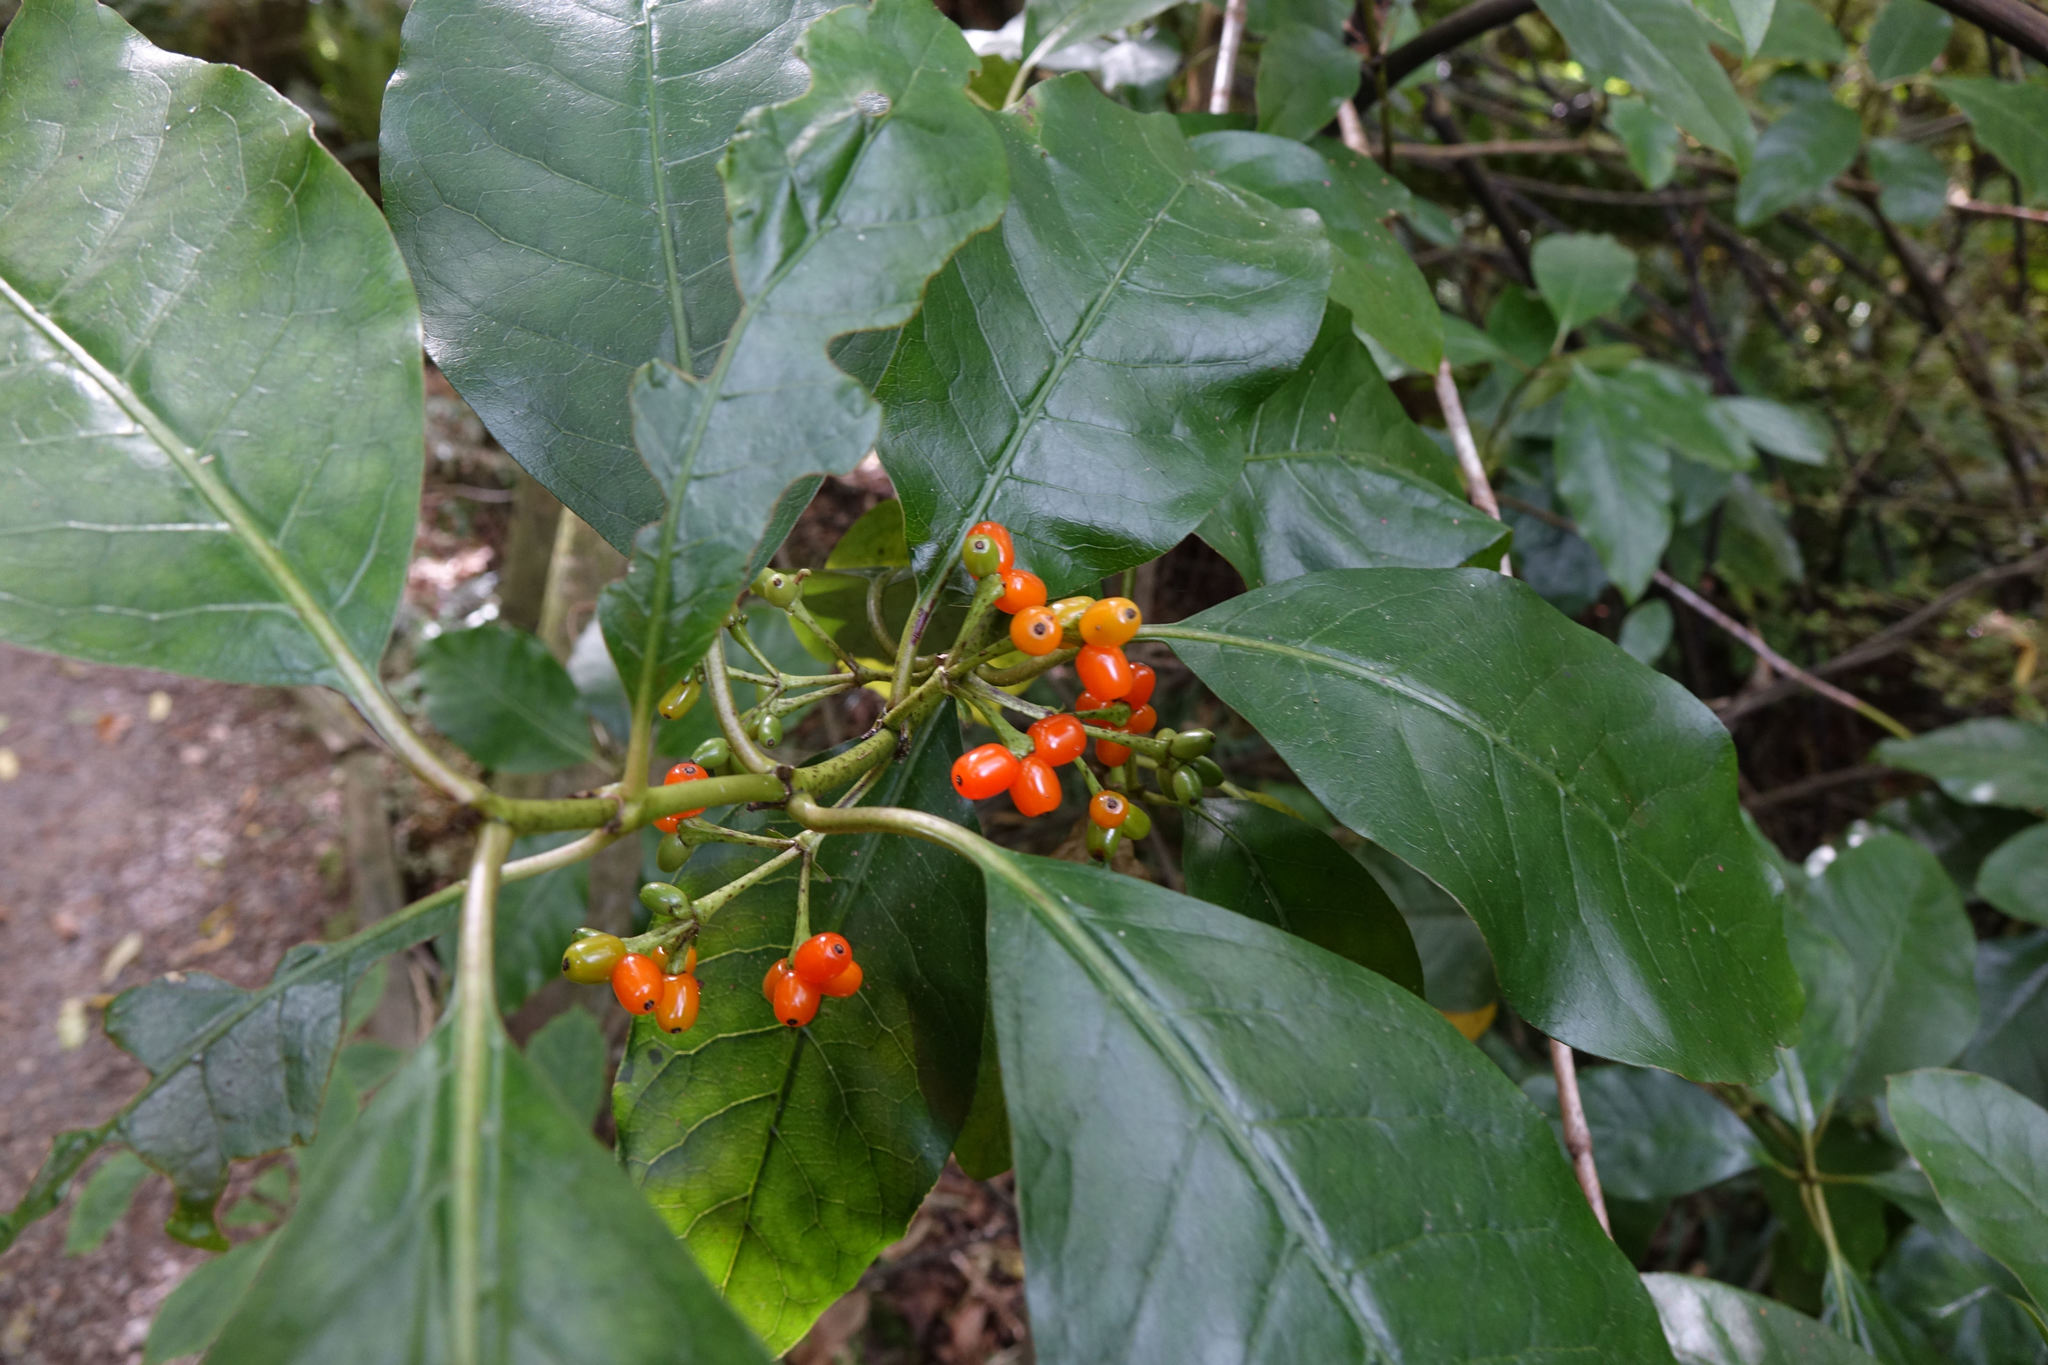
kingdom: Plantae
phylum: Tracheophyta
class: Magnoliopsida
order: Gentianales
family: Rubiaceae
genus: Coprosma
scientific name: Coprosma autumnalis
